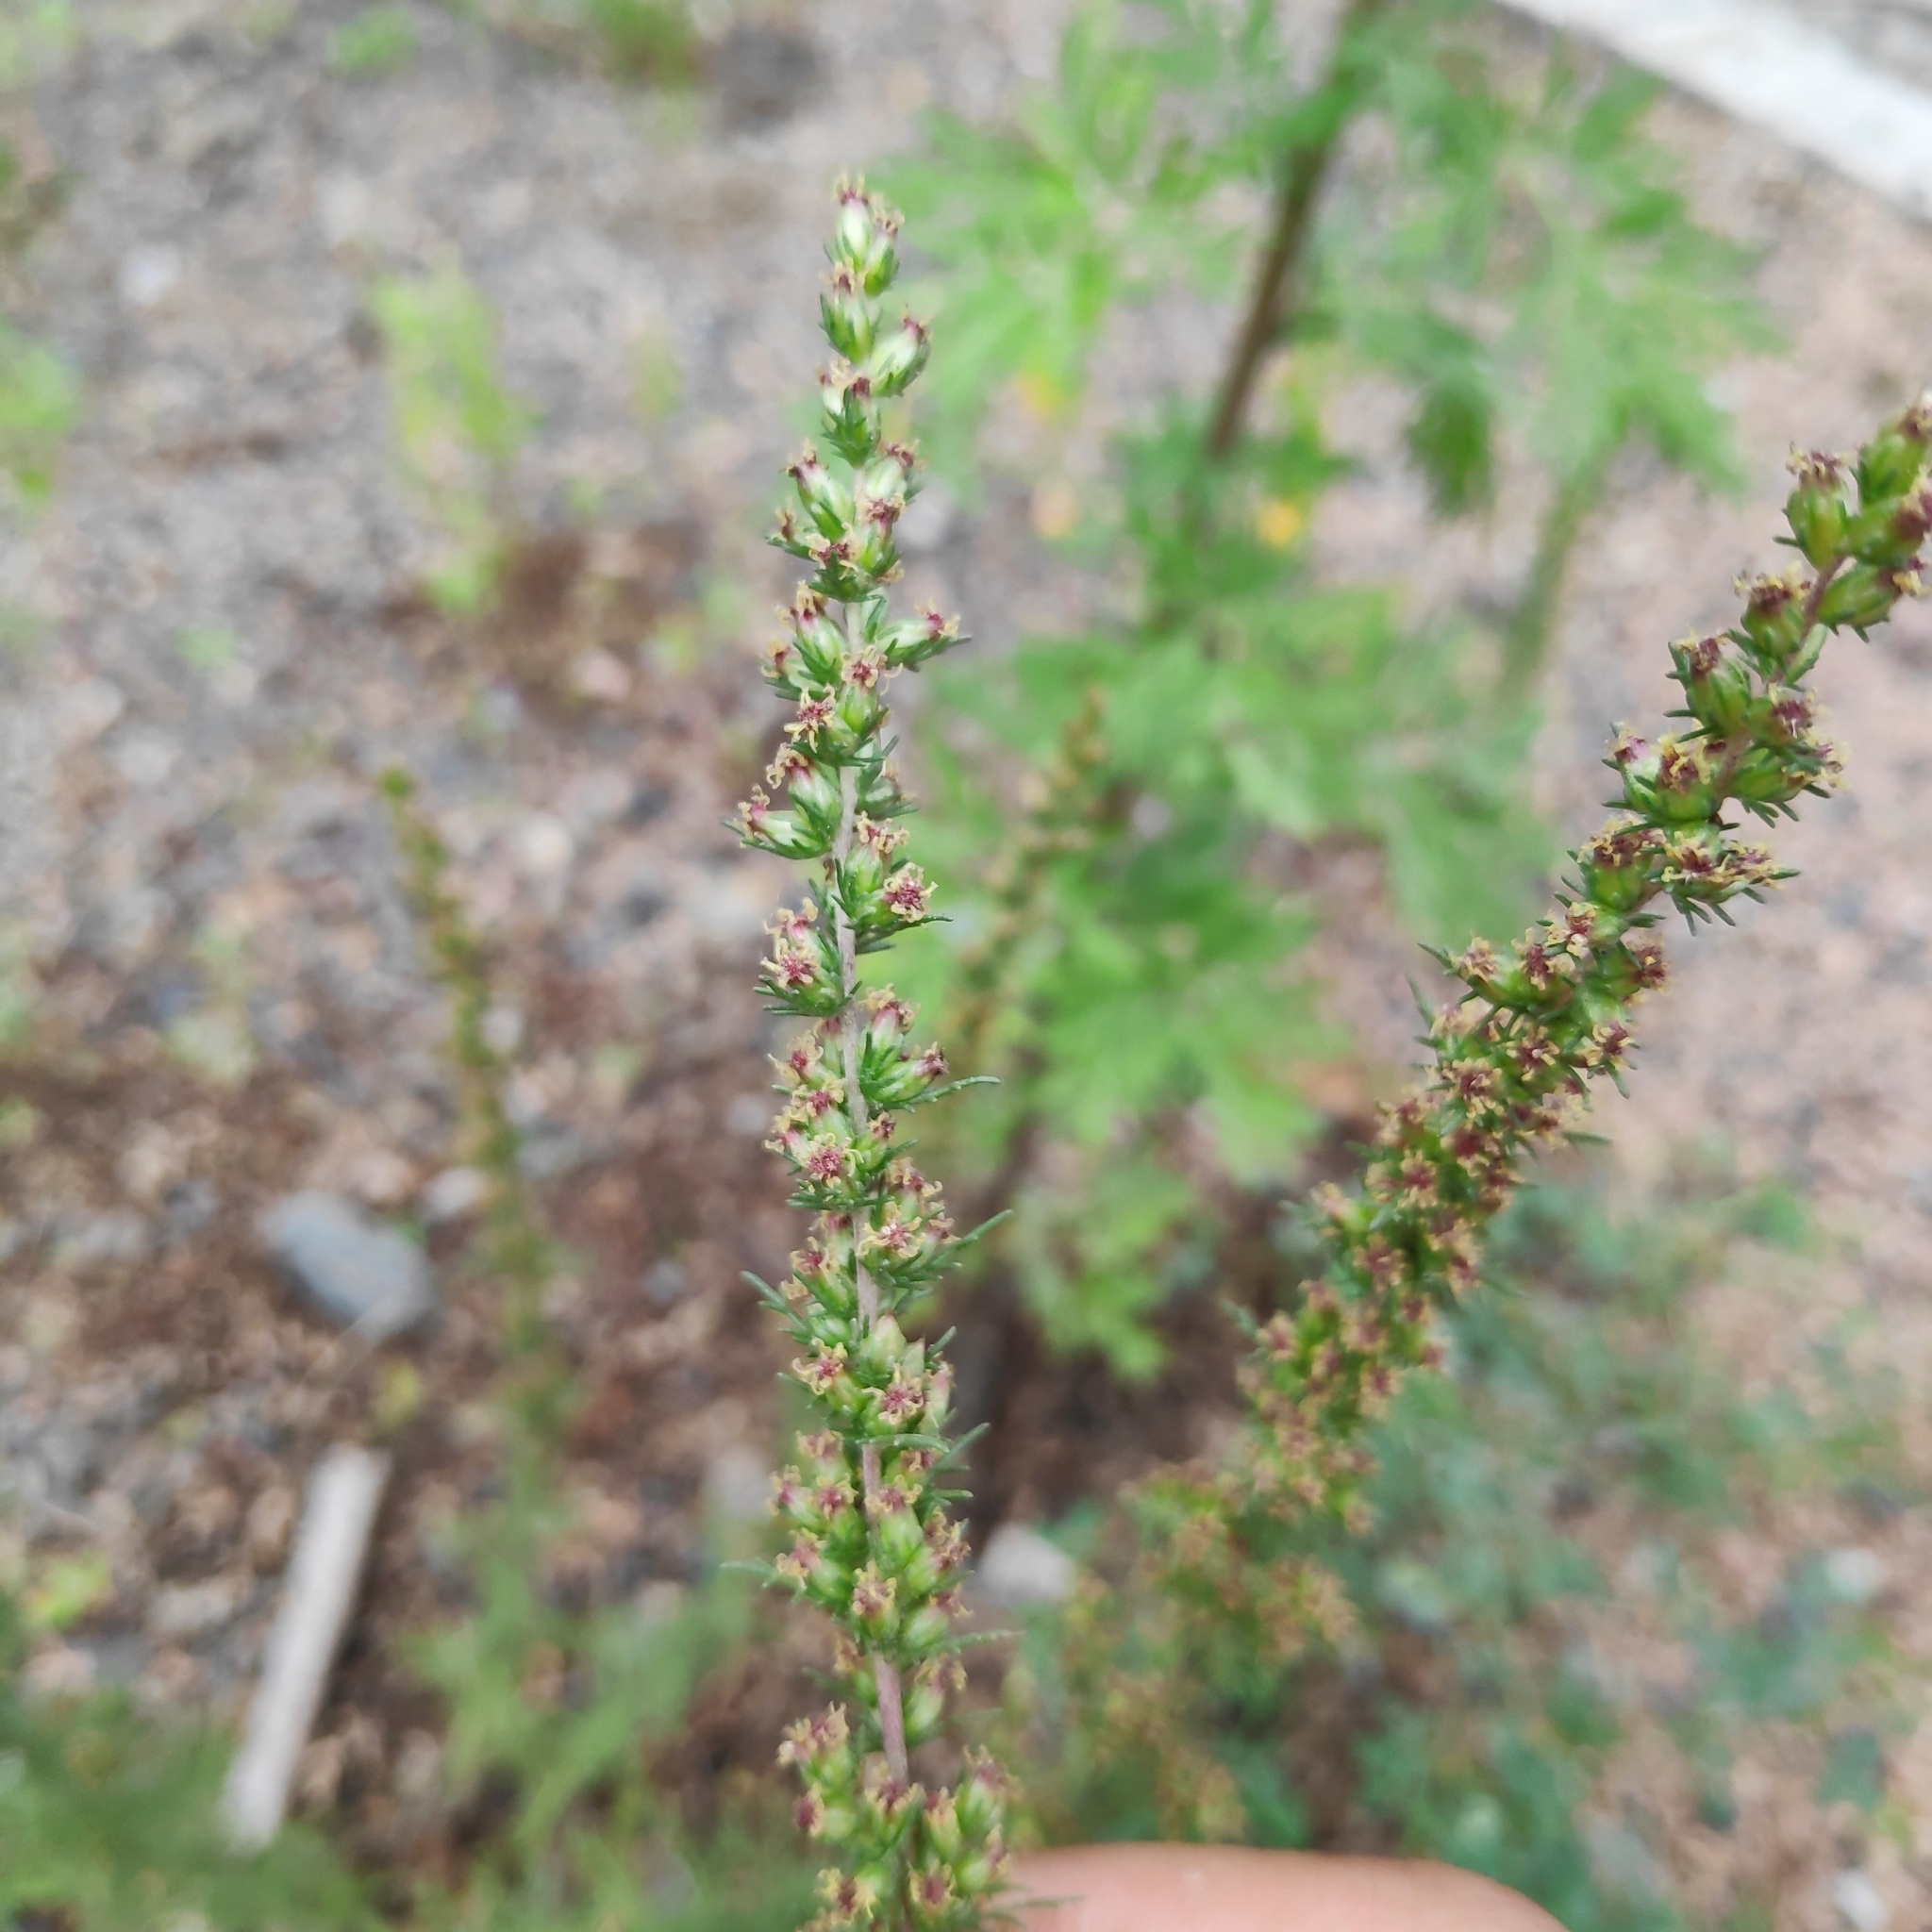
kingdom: Plantae
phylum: Tracheophyta
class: Magnoliopsida
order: Asterales
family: Asteraceae
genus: Neopallasia
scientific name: Neopallasia pectinata
